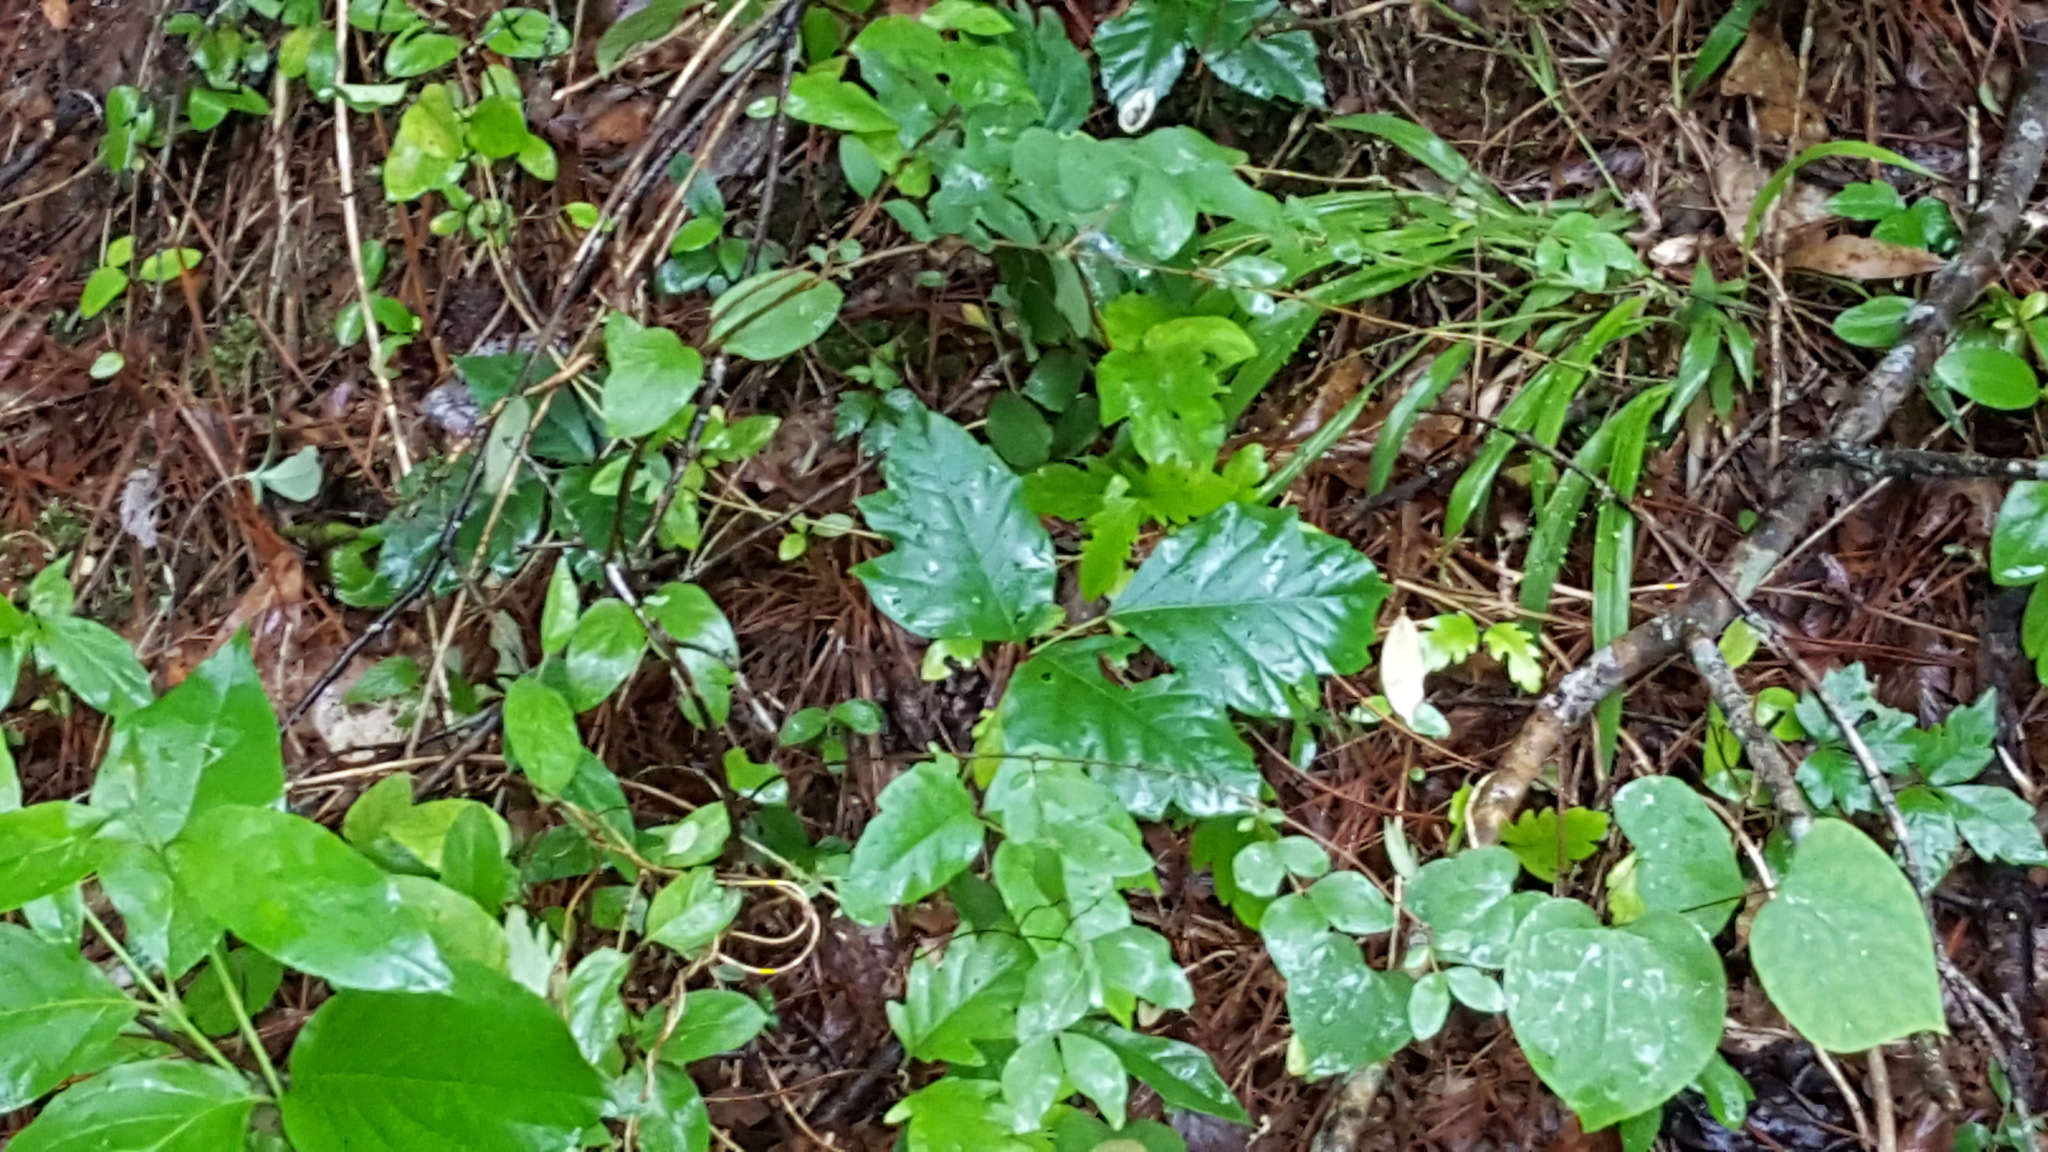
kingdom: Plantae
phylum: Tracheophyta
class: Magnoliopsida
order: Sapindales
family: Anacardiaceae
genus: Toxicodendron
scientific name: Toxicodendron radicans
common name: Poison ivy
